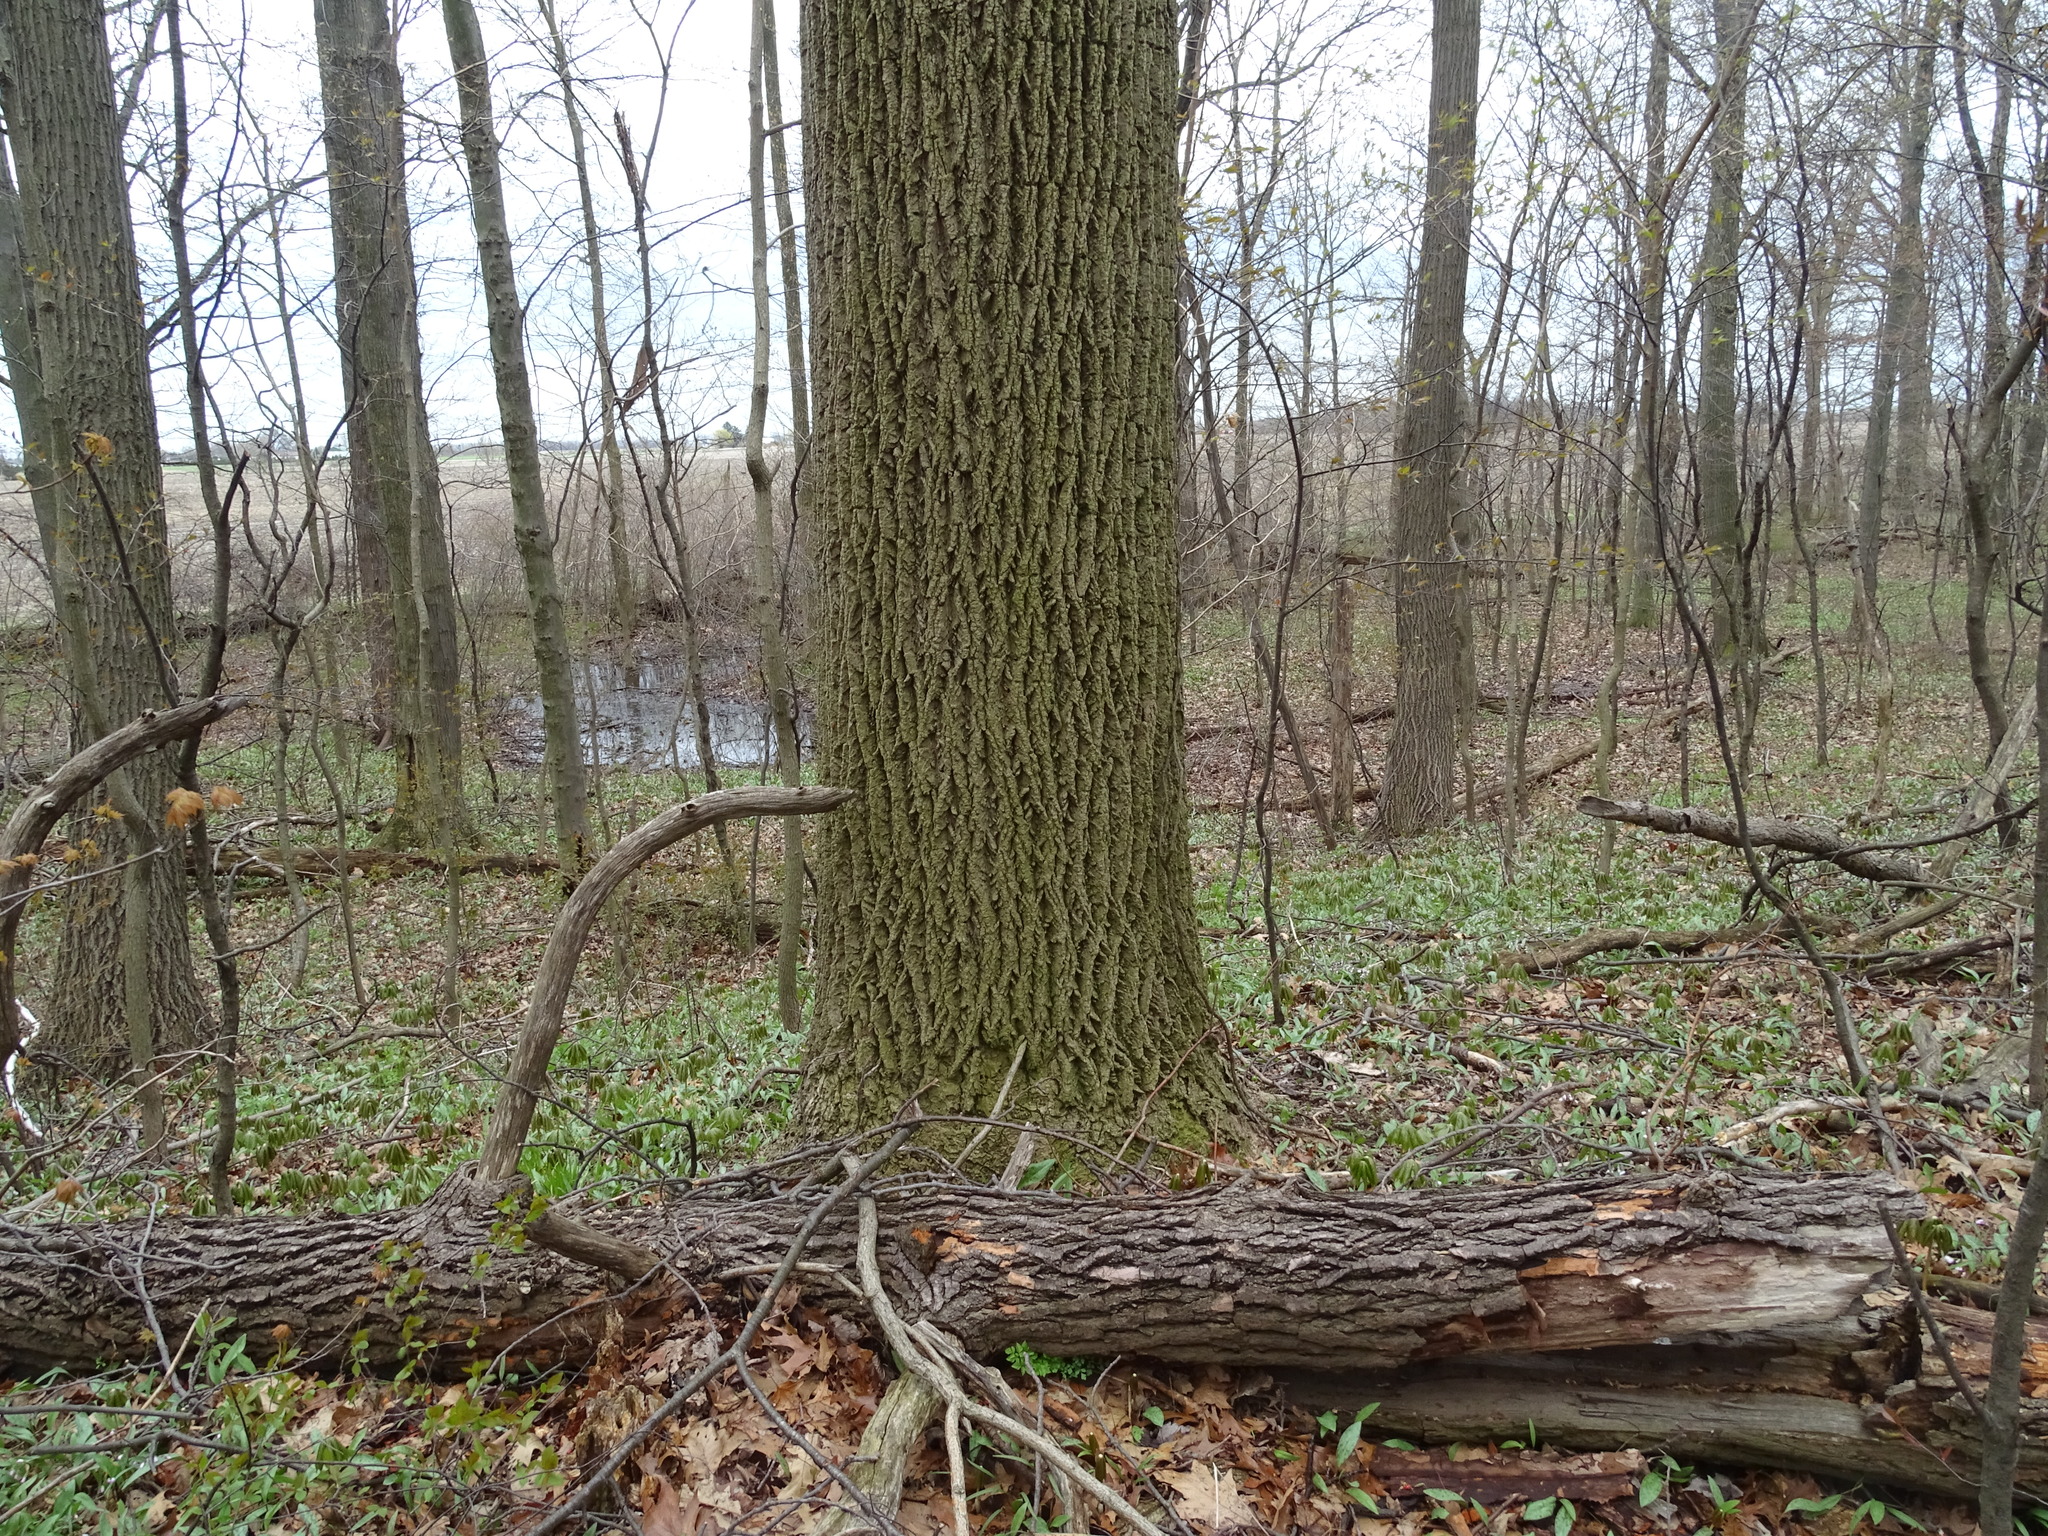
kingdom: Plantae
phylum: Tracheophyta
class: Magnoliopsida
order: Magnoliales
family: Magnoliaceae
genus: Liriodendron
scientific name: Liriodendron tulipifera
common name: Tulip tree
